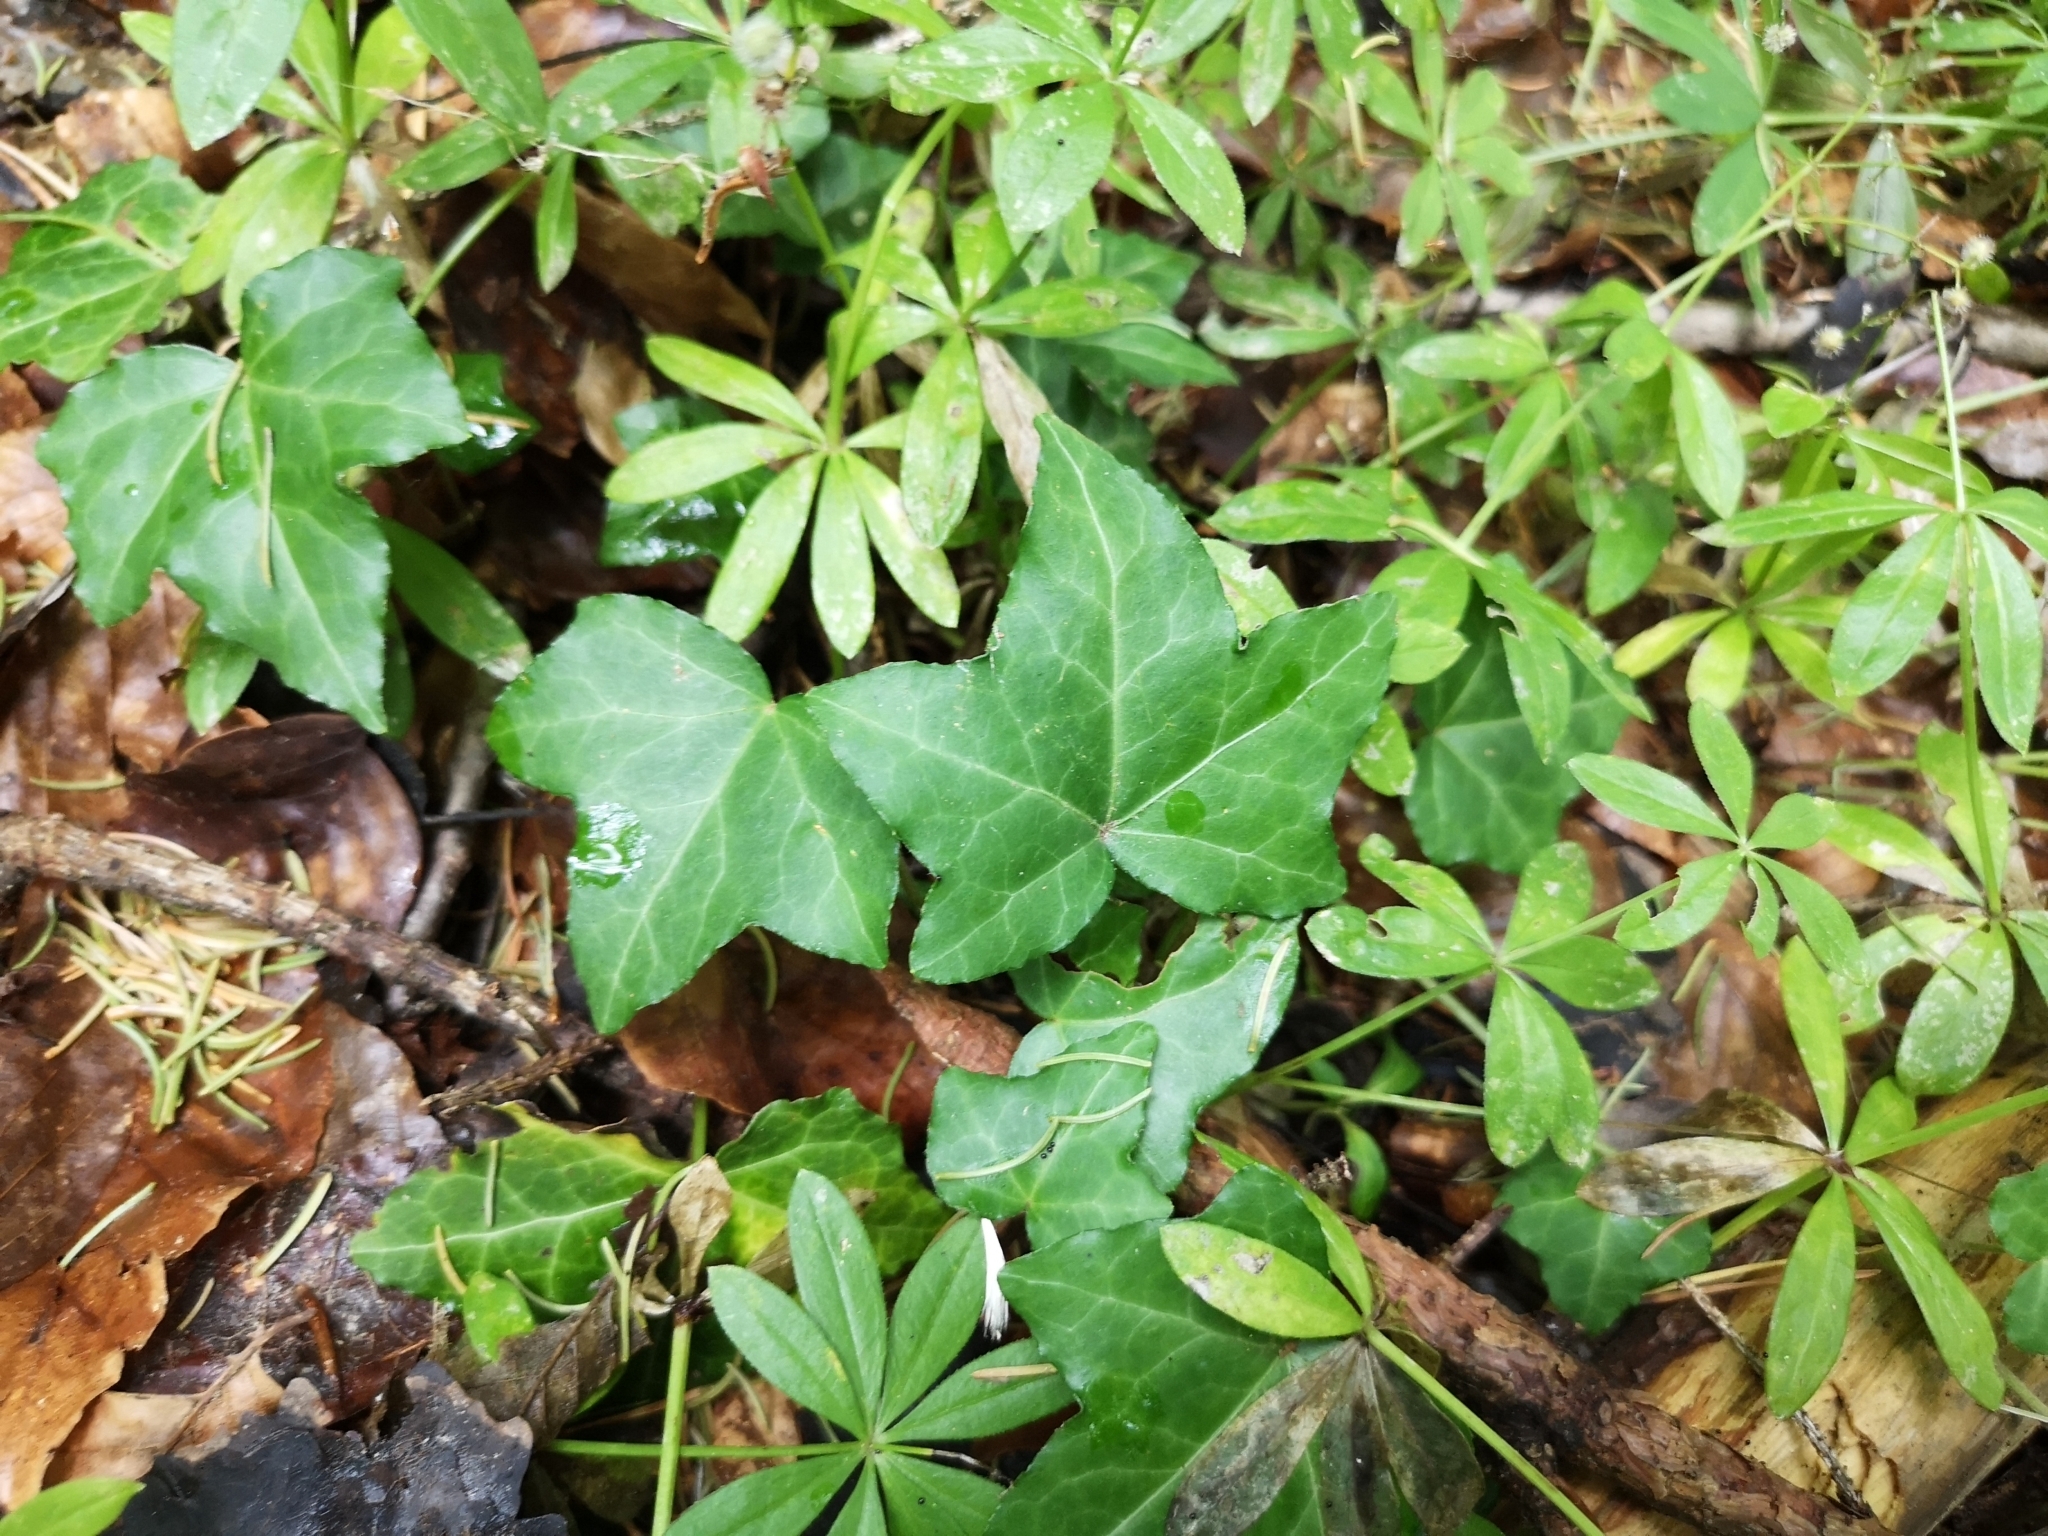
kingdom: Plantae
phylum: Tracheophyta
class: Magnoliopsida
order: Apiales
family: Araliaceae
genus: Hedera
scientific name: Hedera helix
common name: Ivy
